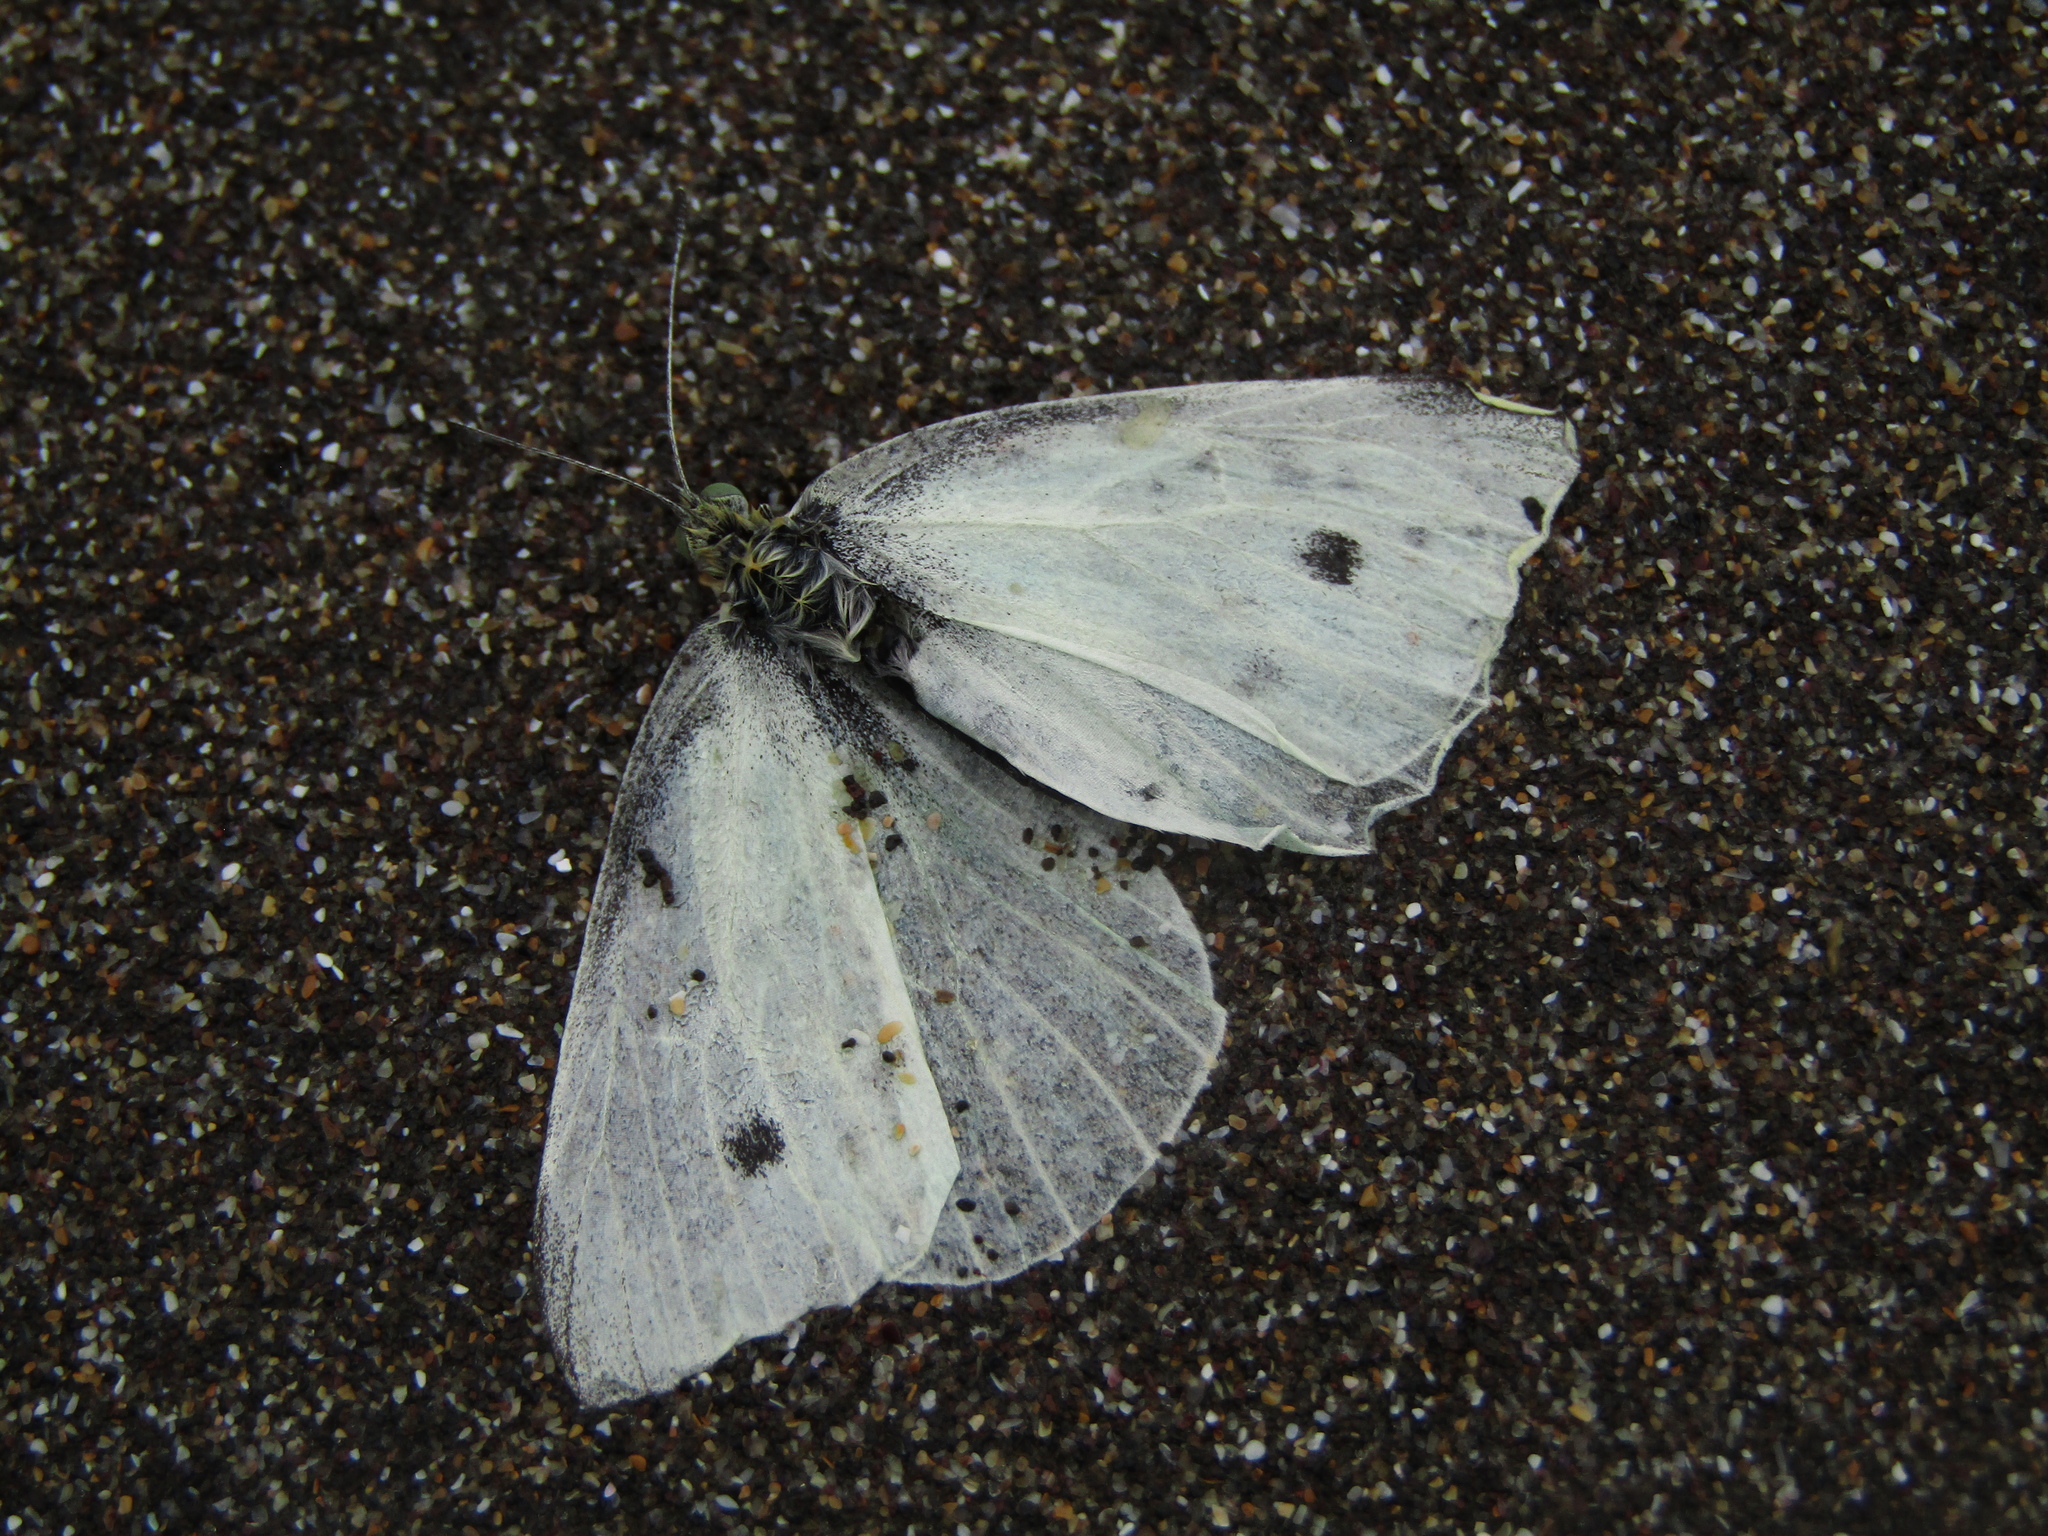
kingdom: Animalia
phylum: Arthropoda
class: Insecta
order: Lepidoptera
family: Pieridae
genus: Pieris
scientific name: Pieris rapae
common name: Small white
